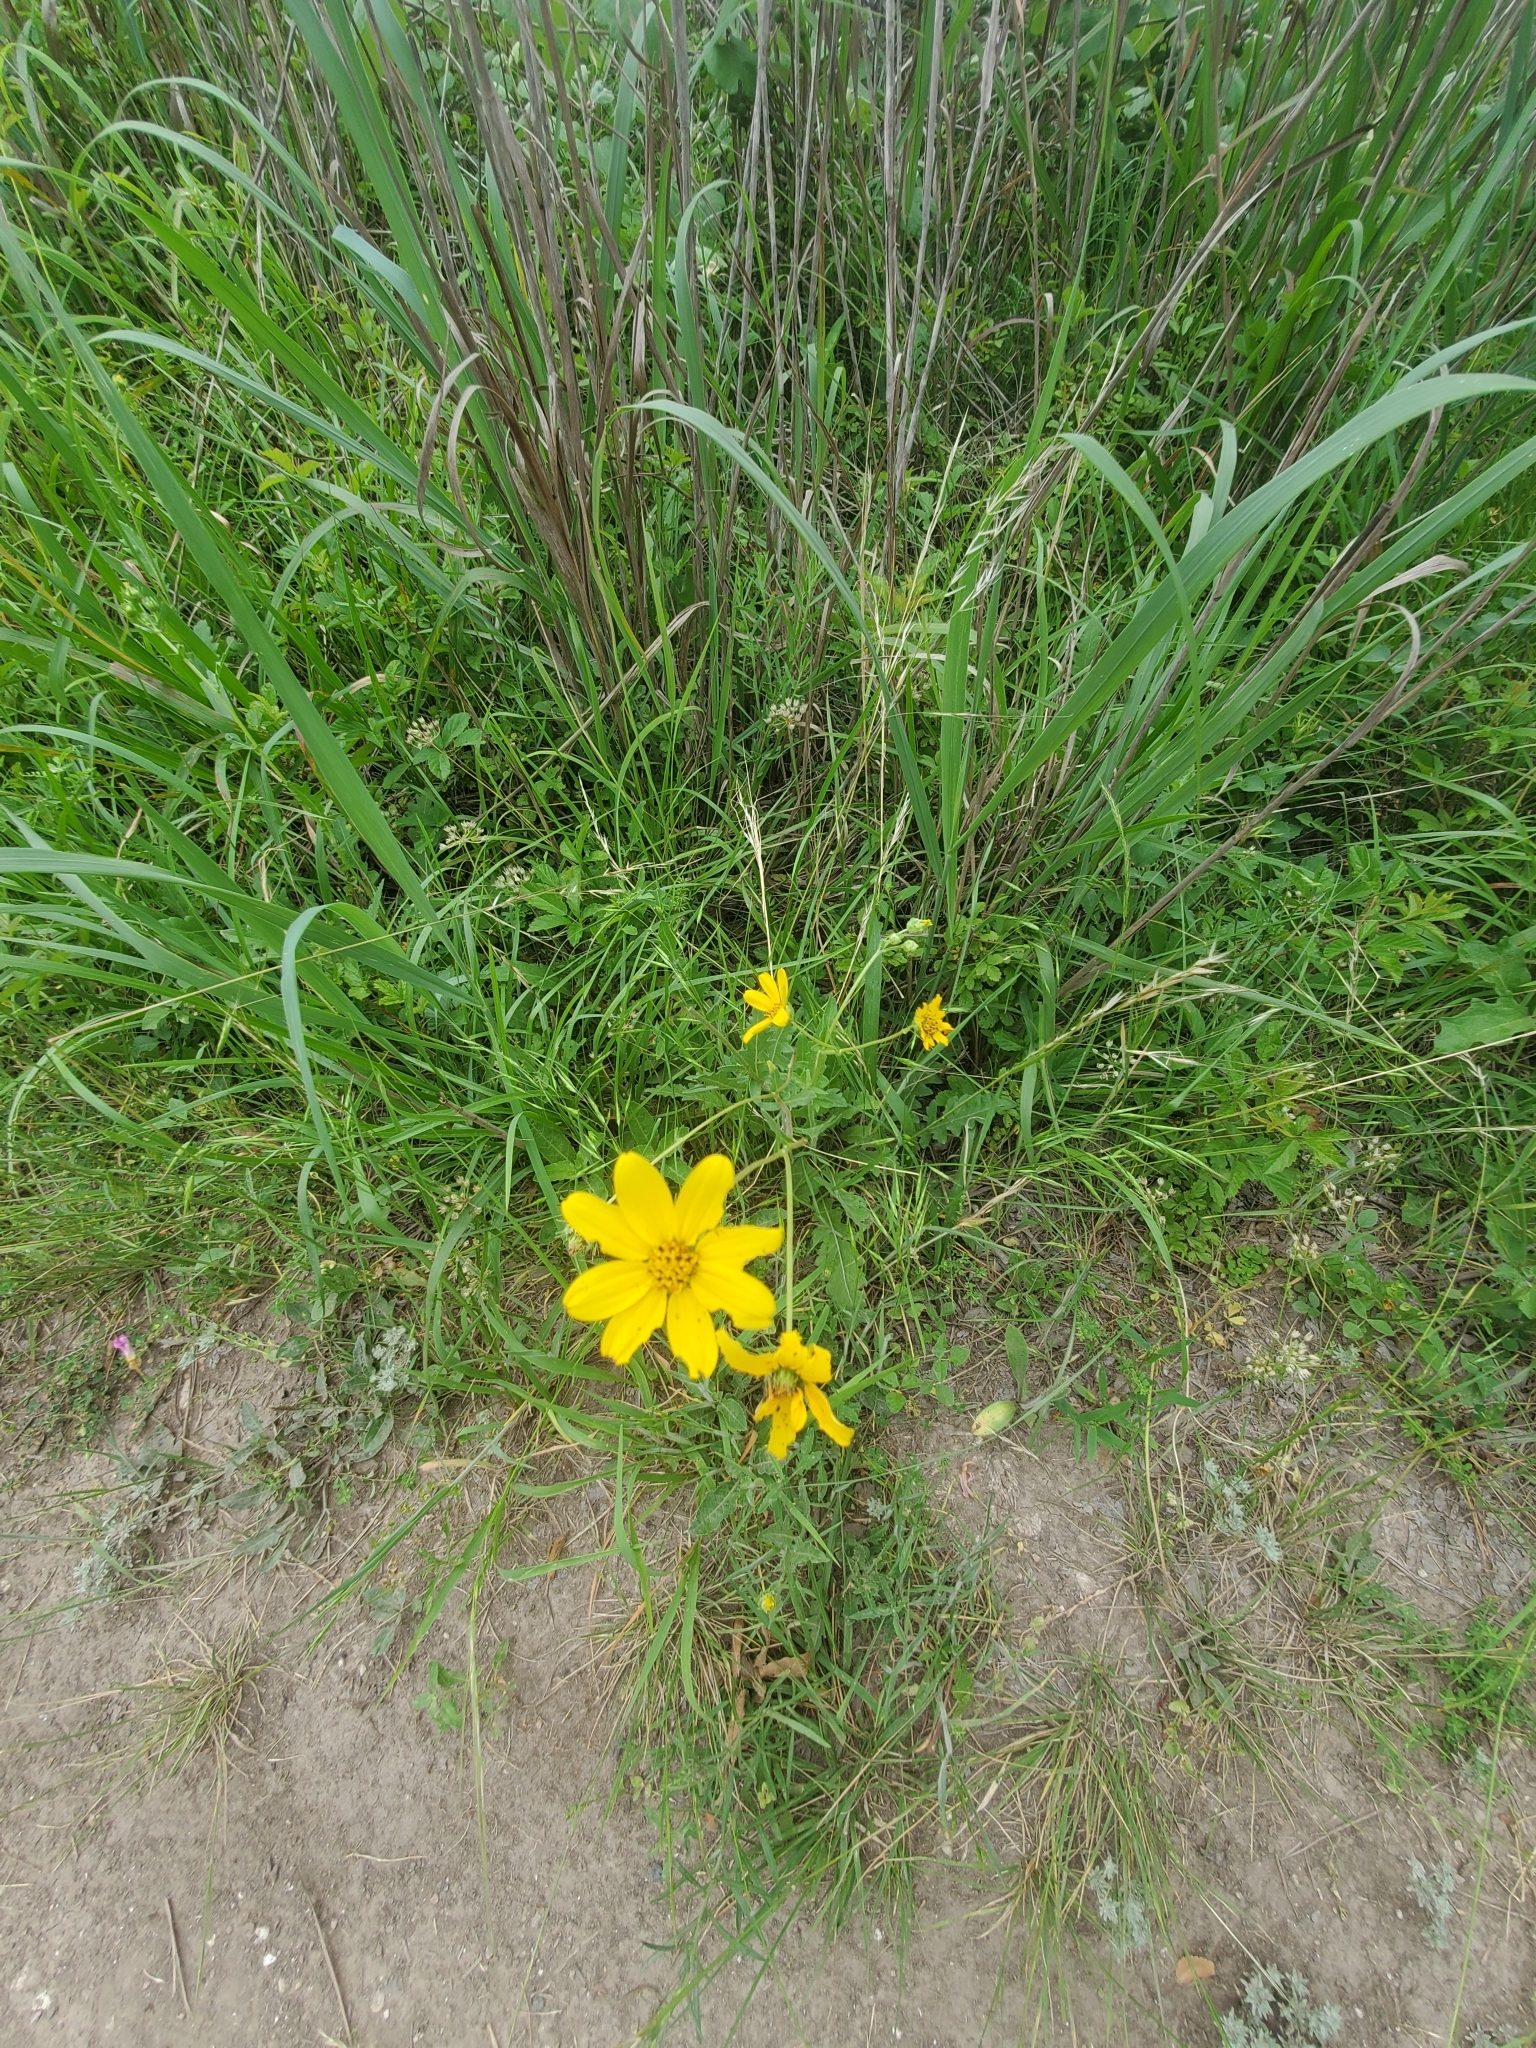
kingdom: Plantae
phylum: Tracheophyta
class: Magnoliopsida
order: Asterales
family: Asteraceae
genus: Engelmannia
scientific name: Engelmannia peristenia
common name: Engelmann's daisy
